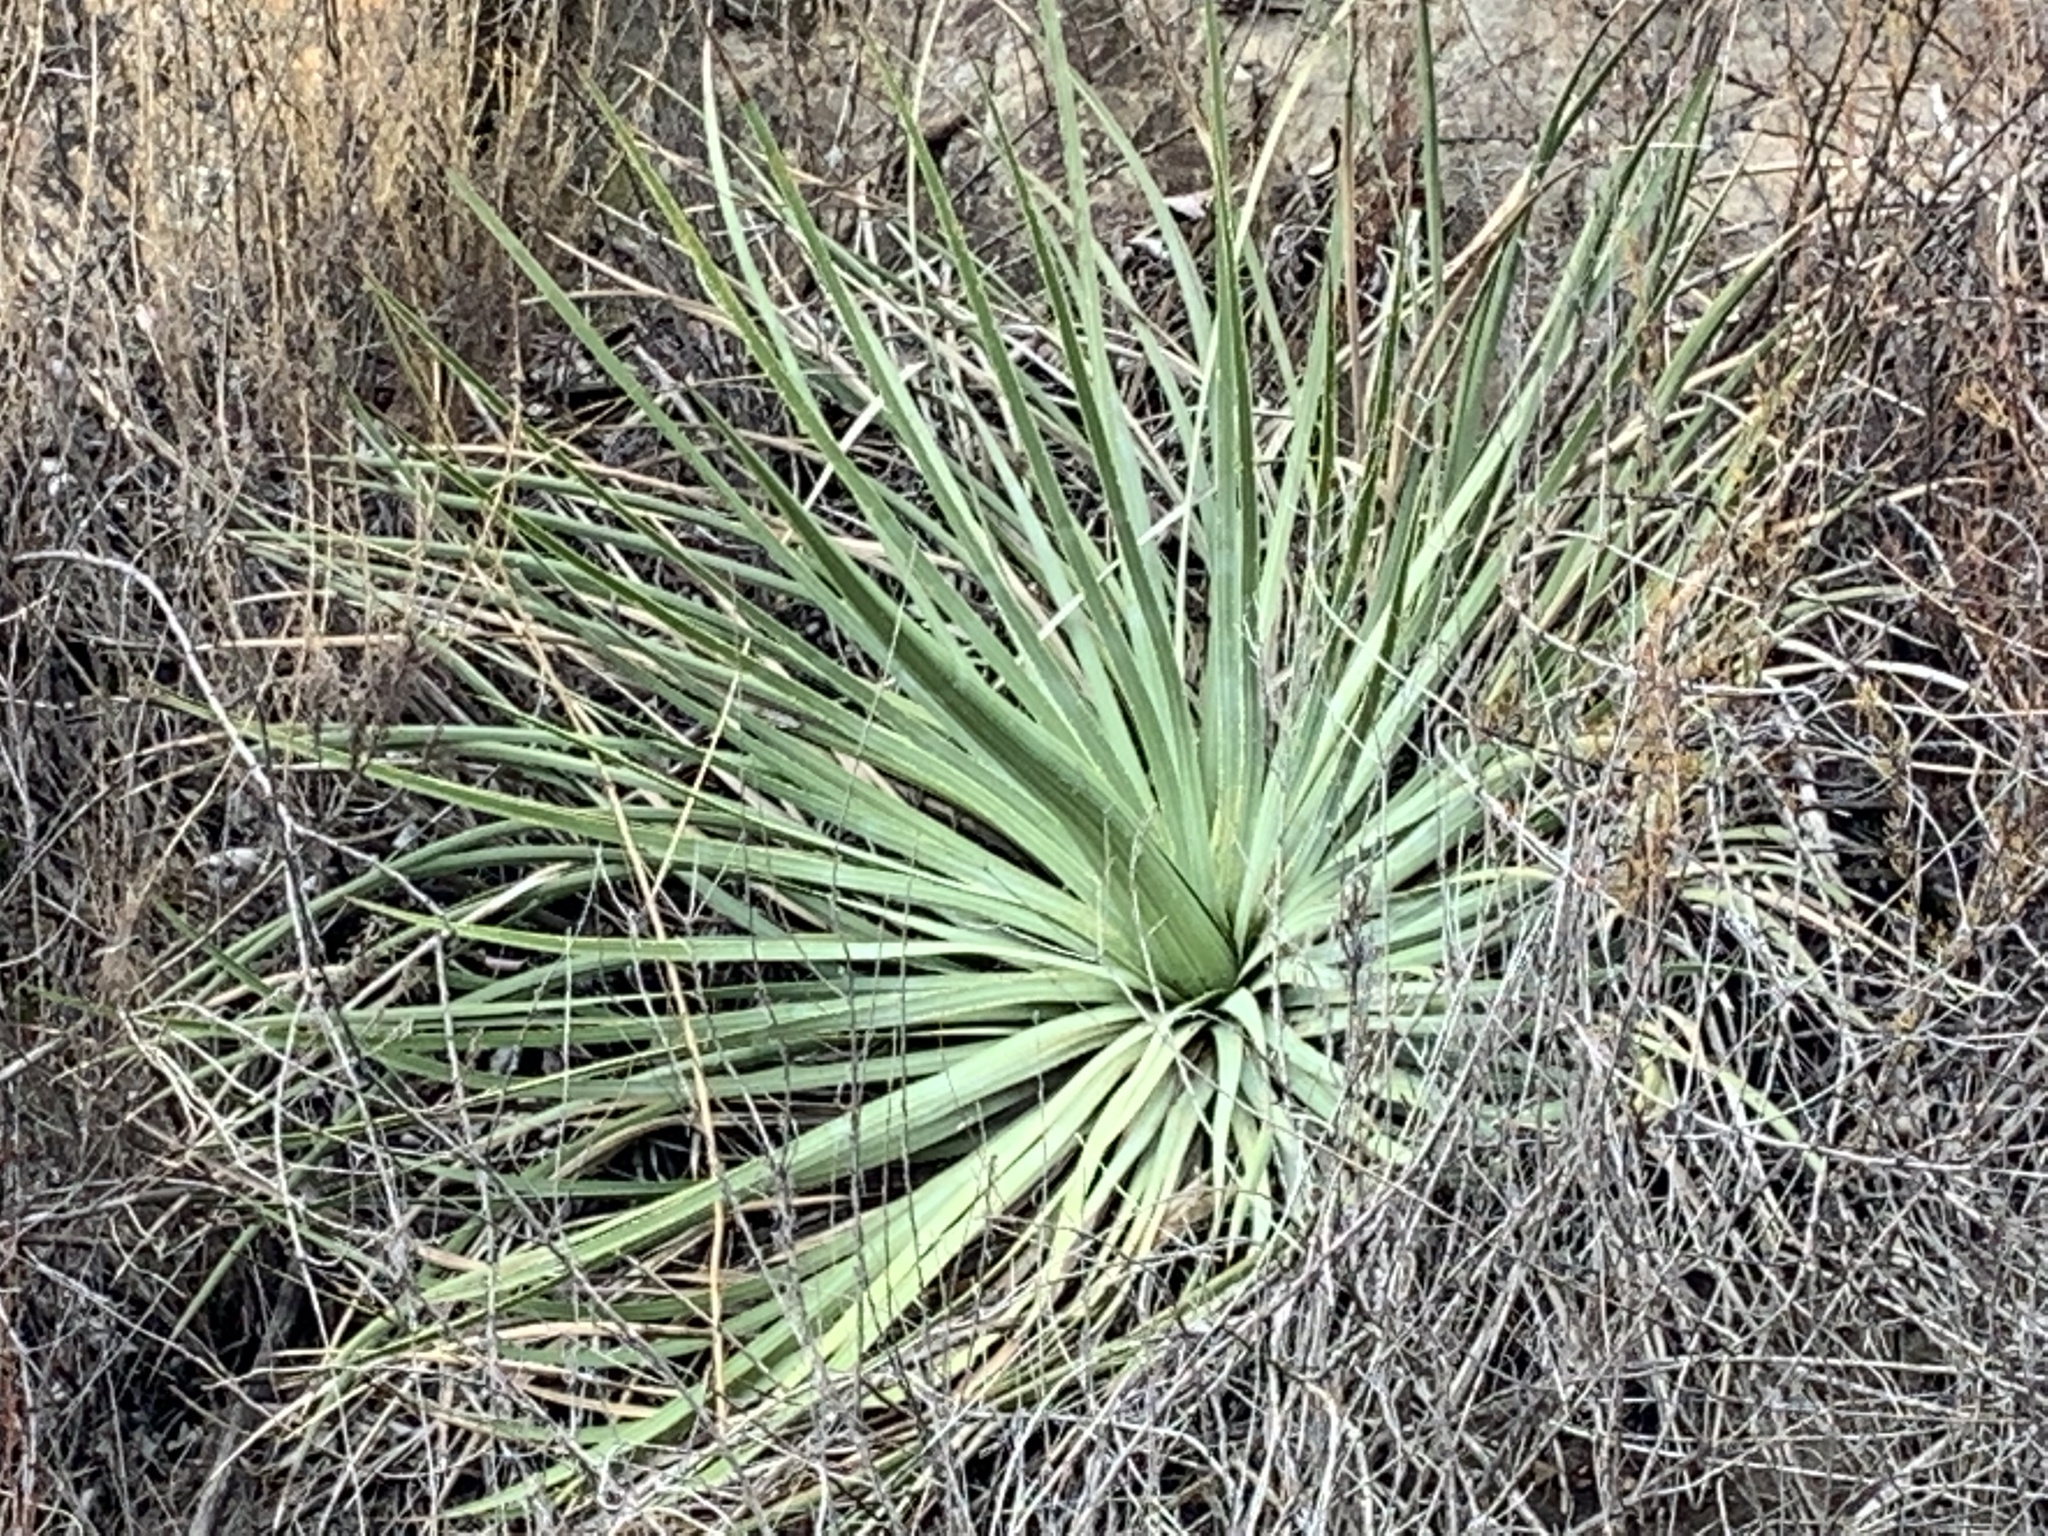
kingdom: Plantae
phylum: Tracheophyta
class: Liliopsida
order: Asparagales
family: Asparagaceae
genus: Hesperoyucca
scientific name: Hesperoyucca whipplei
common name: Our lord's-candle
